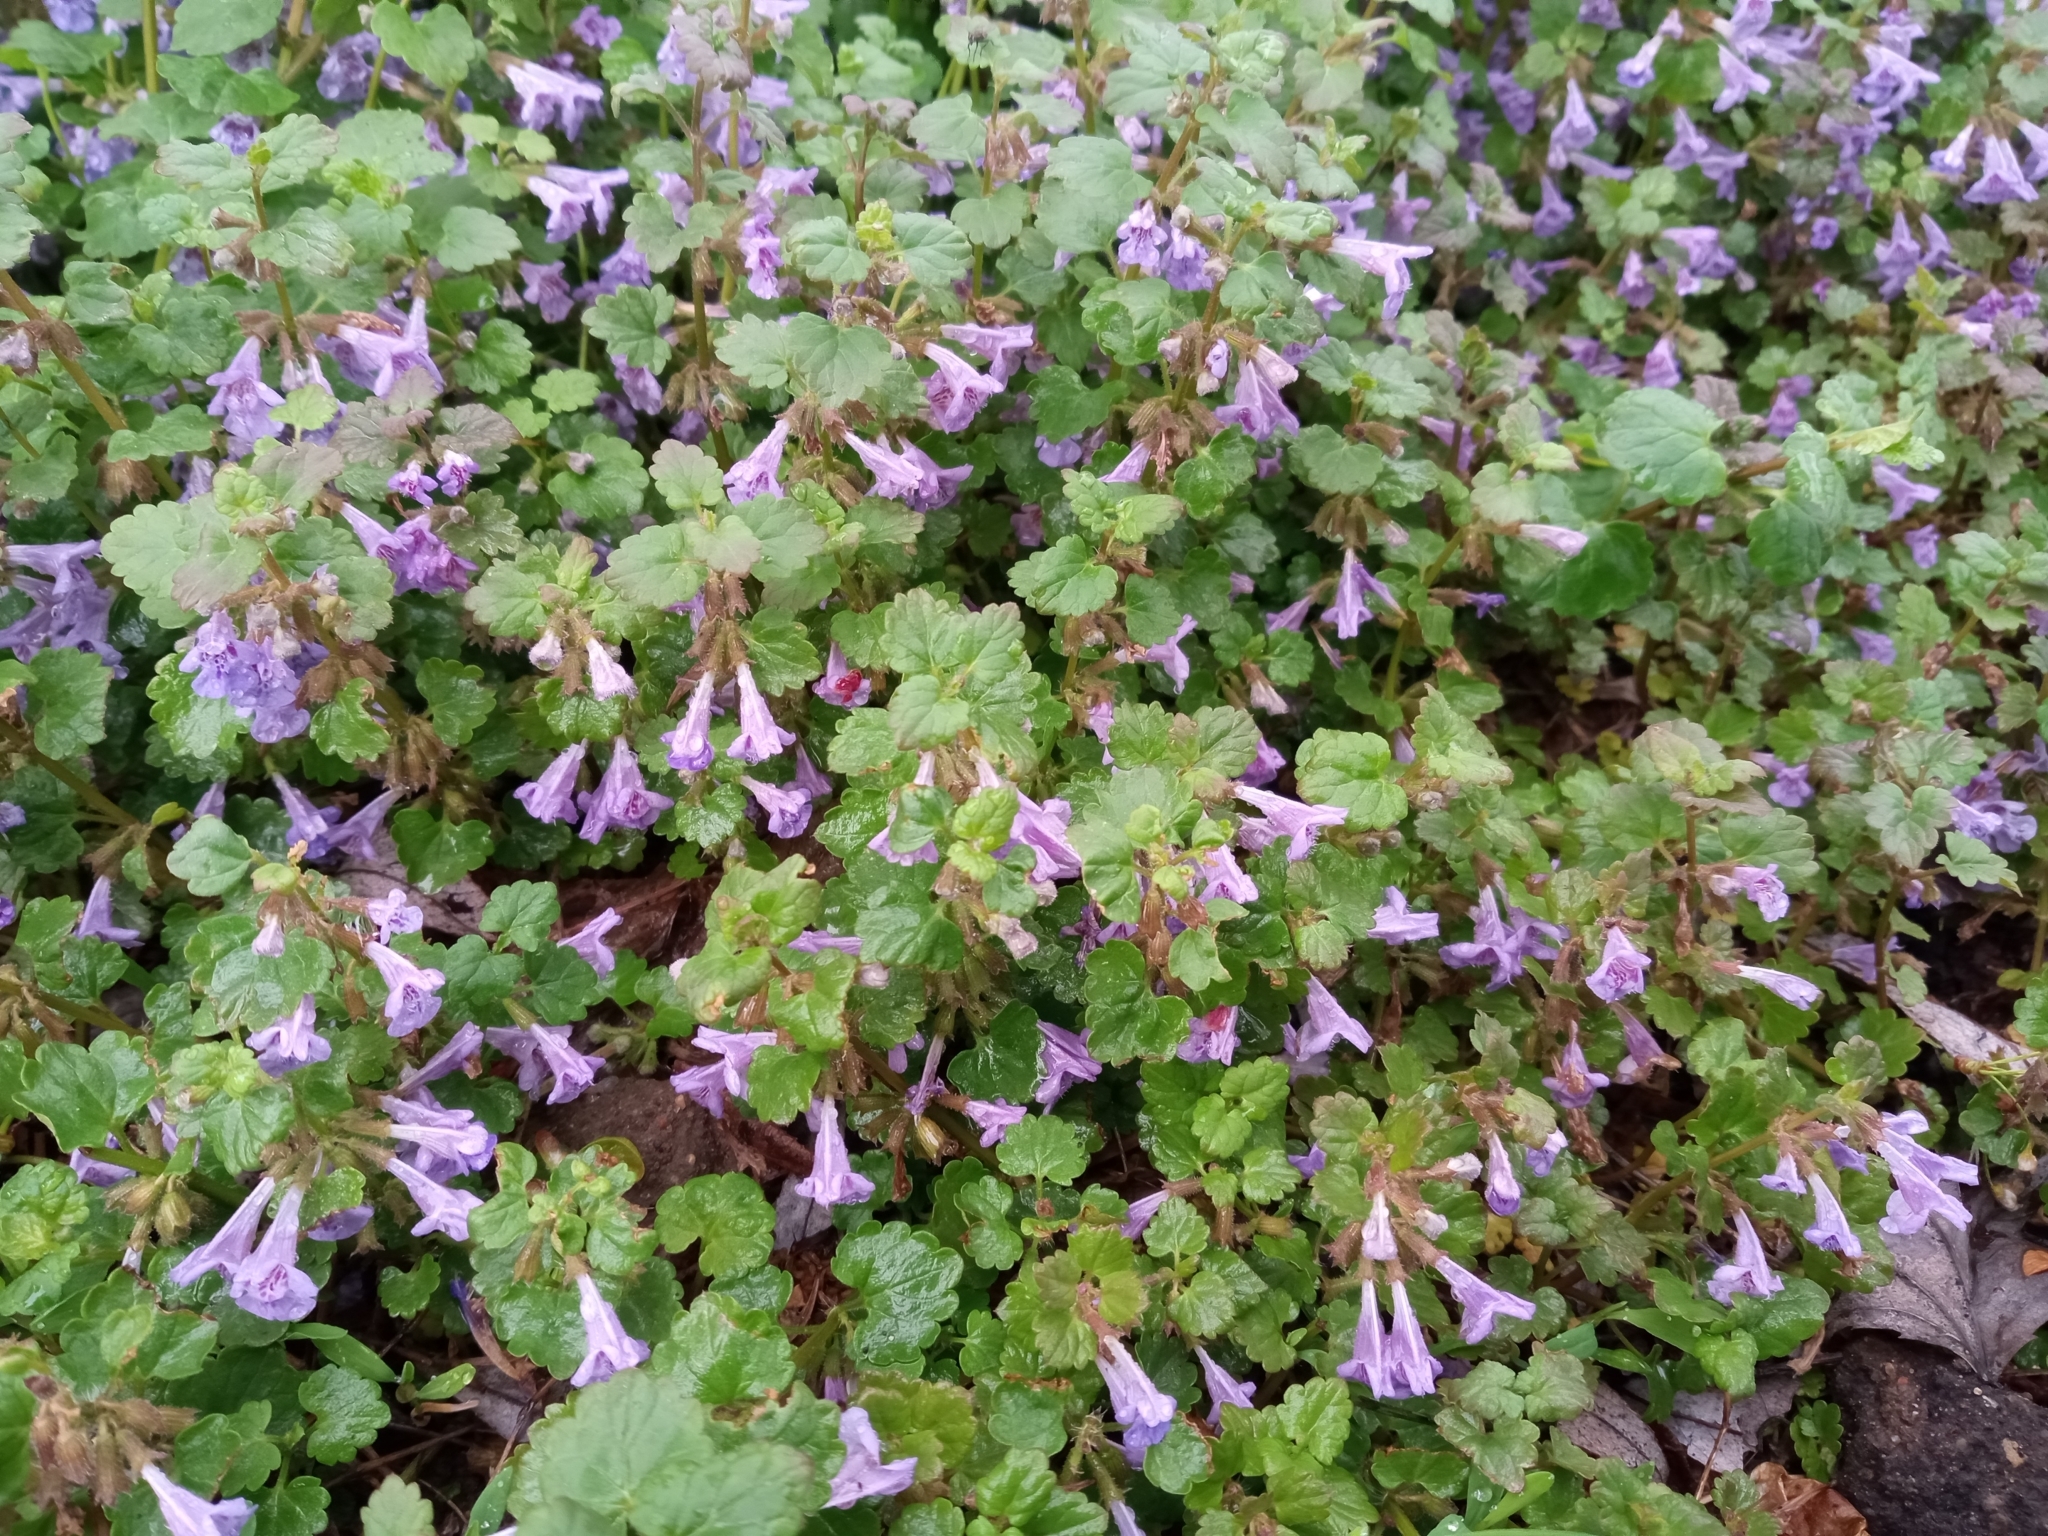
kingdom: Plantae
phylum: Tracheophyta
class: Magnoliopsida
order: Lamiales
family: Lamiaceae
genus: Glechoma
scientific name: Glechoma hederacea
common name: Ground ivy
